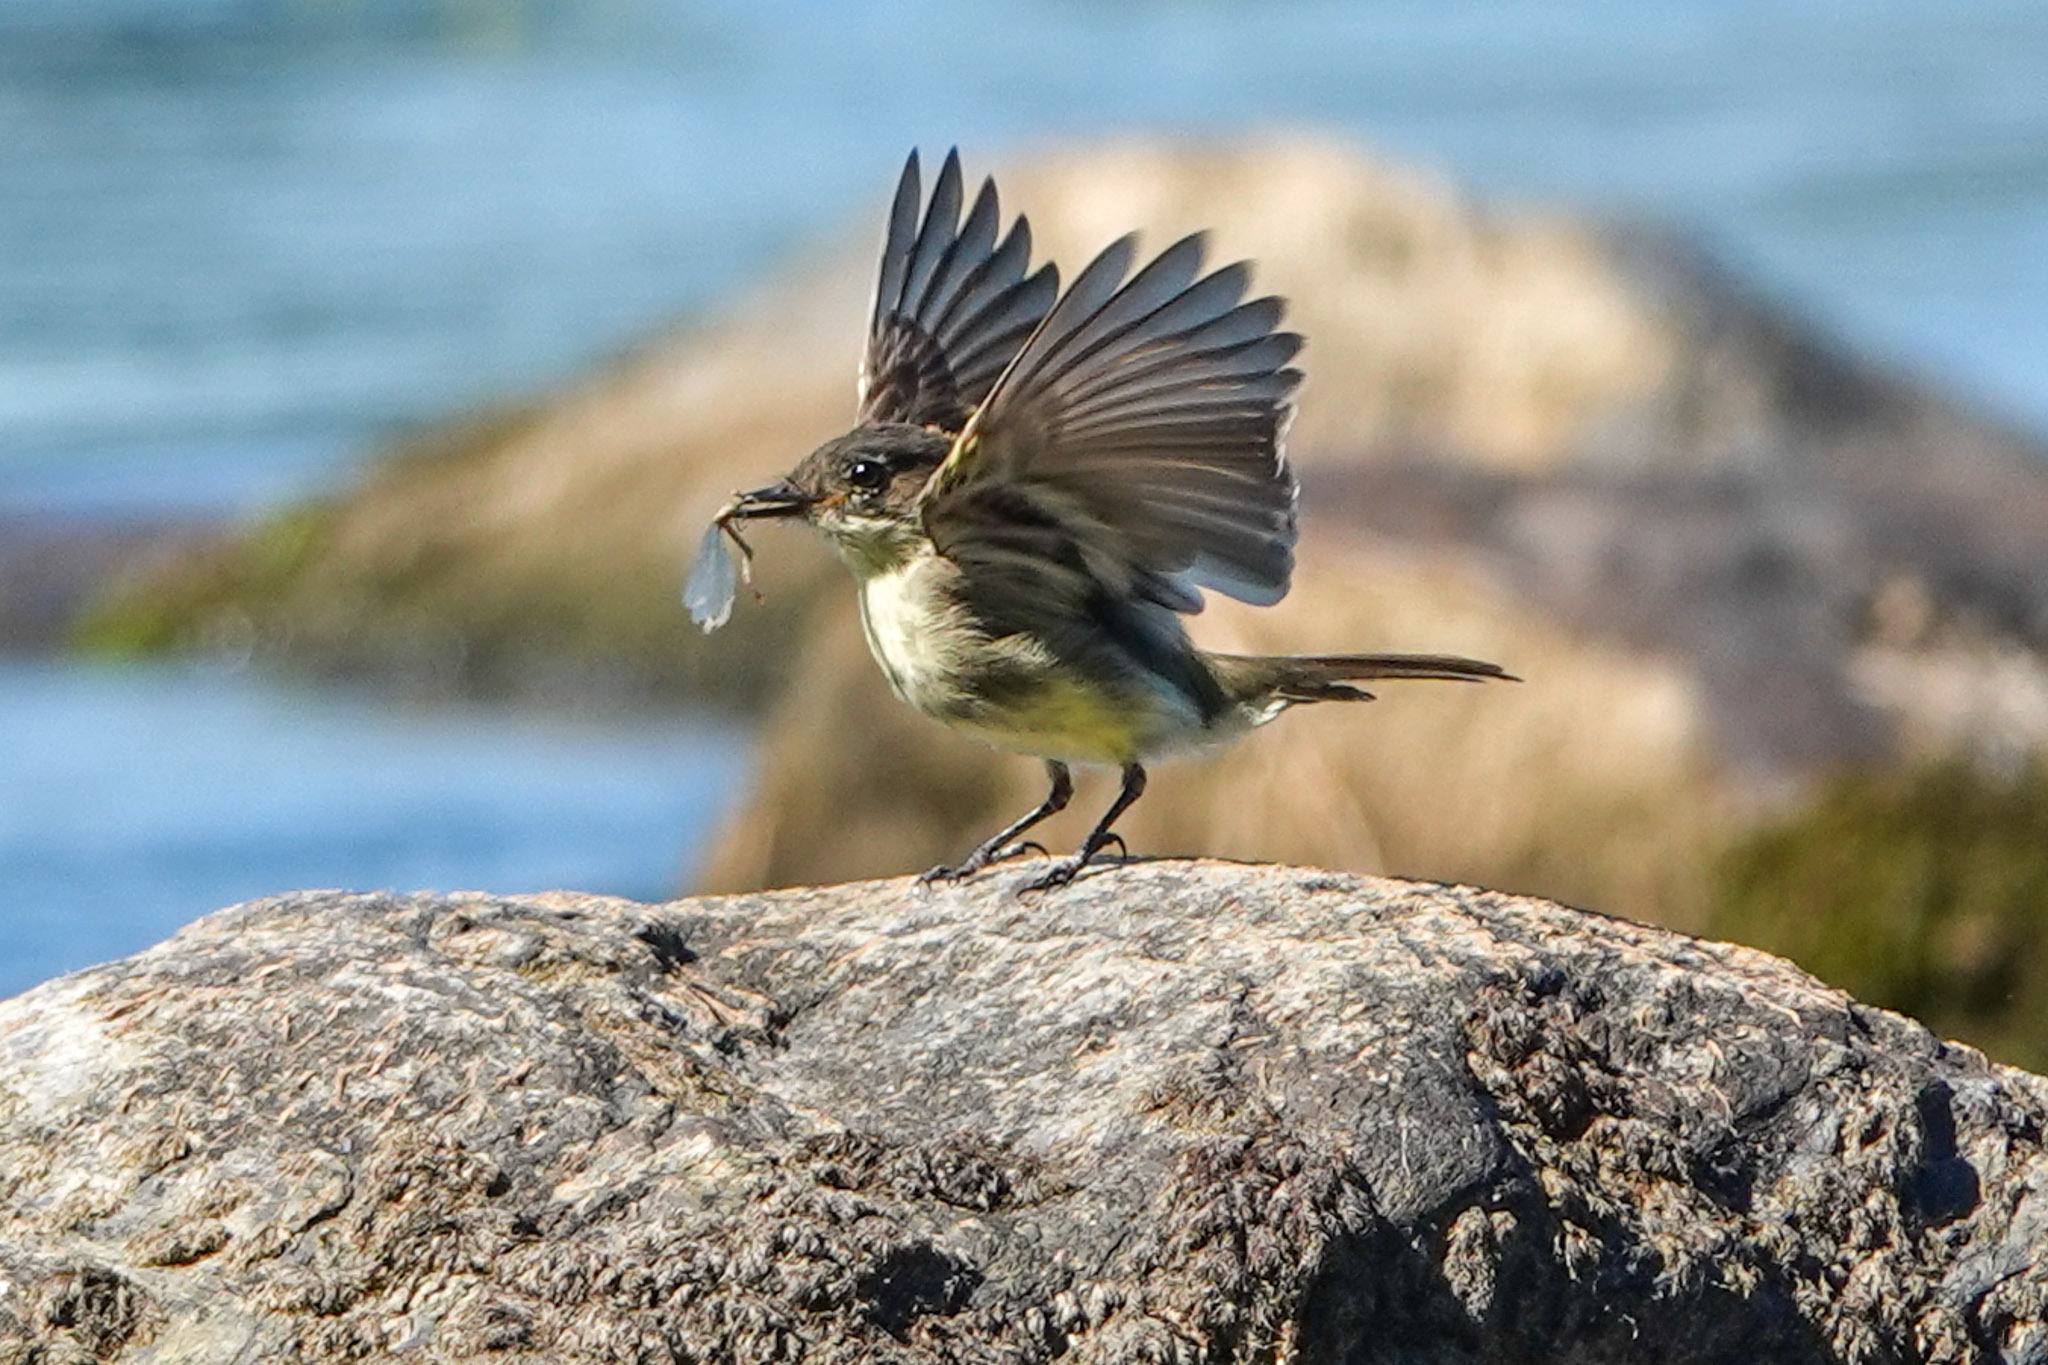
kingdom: Animalia
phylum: Chordata
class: Aves
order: Passeriformes
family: Tyrannidae
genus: Sayornis
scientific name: Sayornis phoebe
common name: Eastern phoebe
